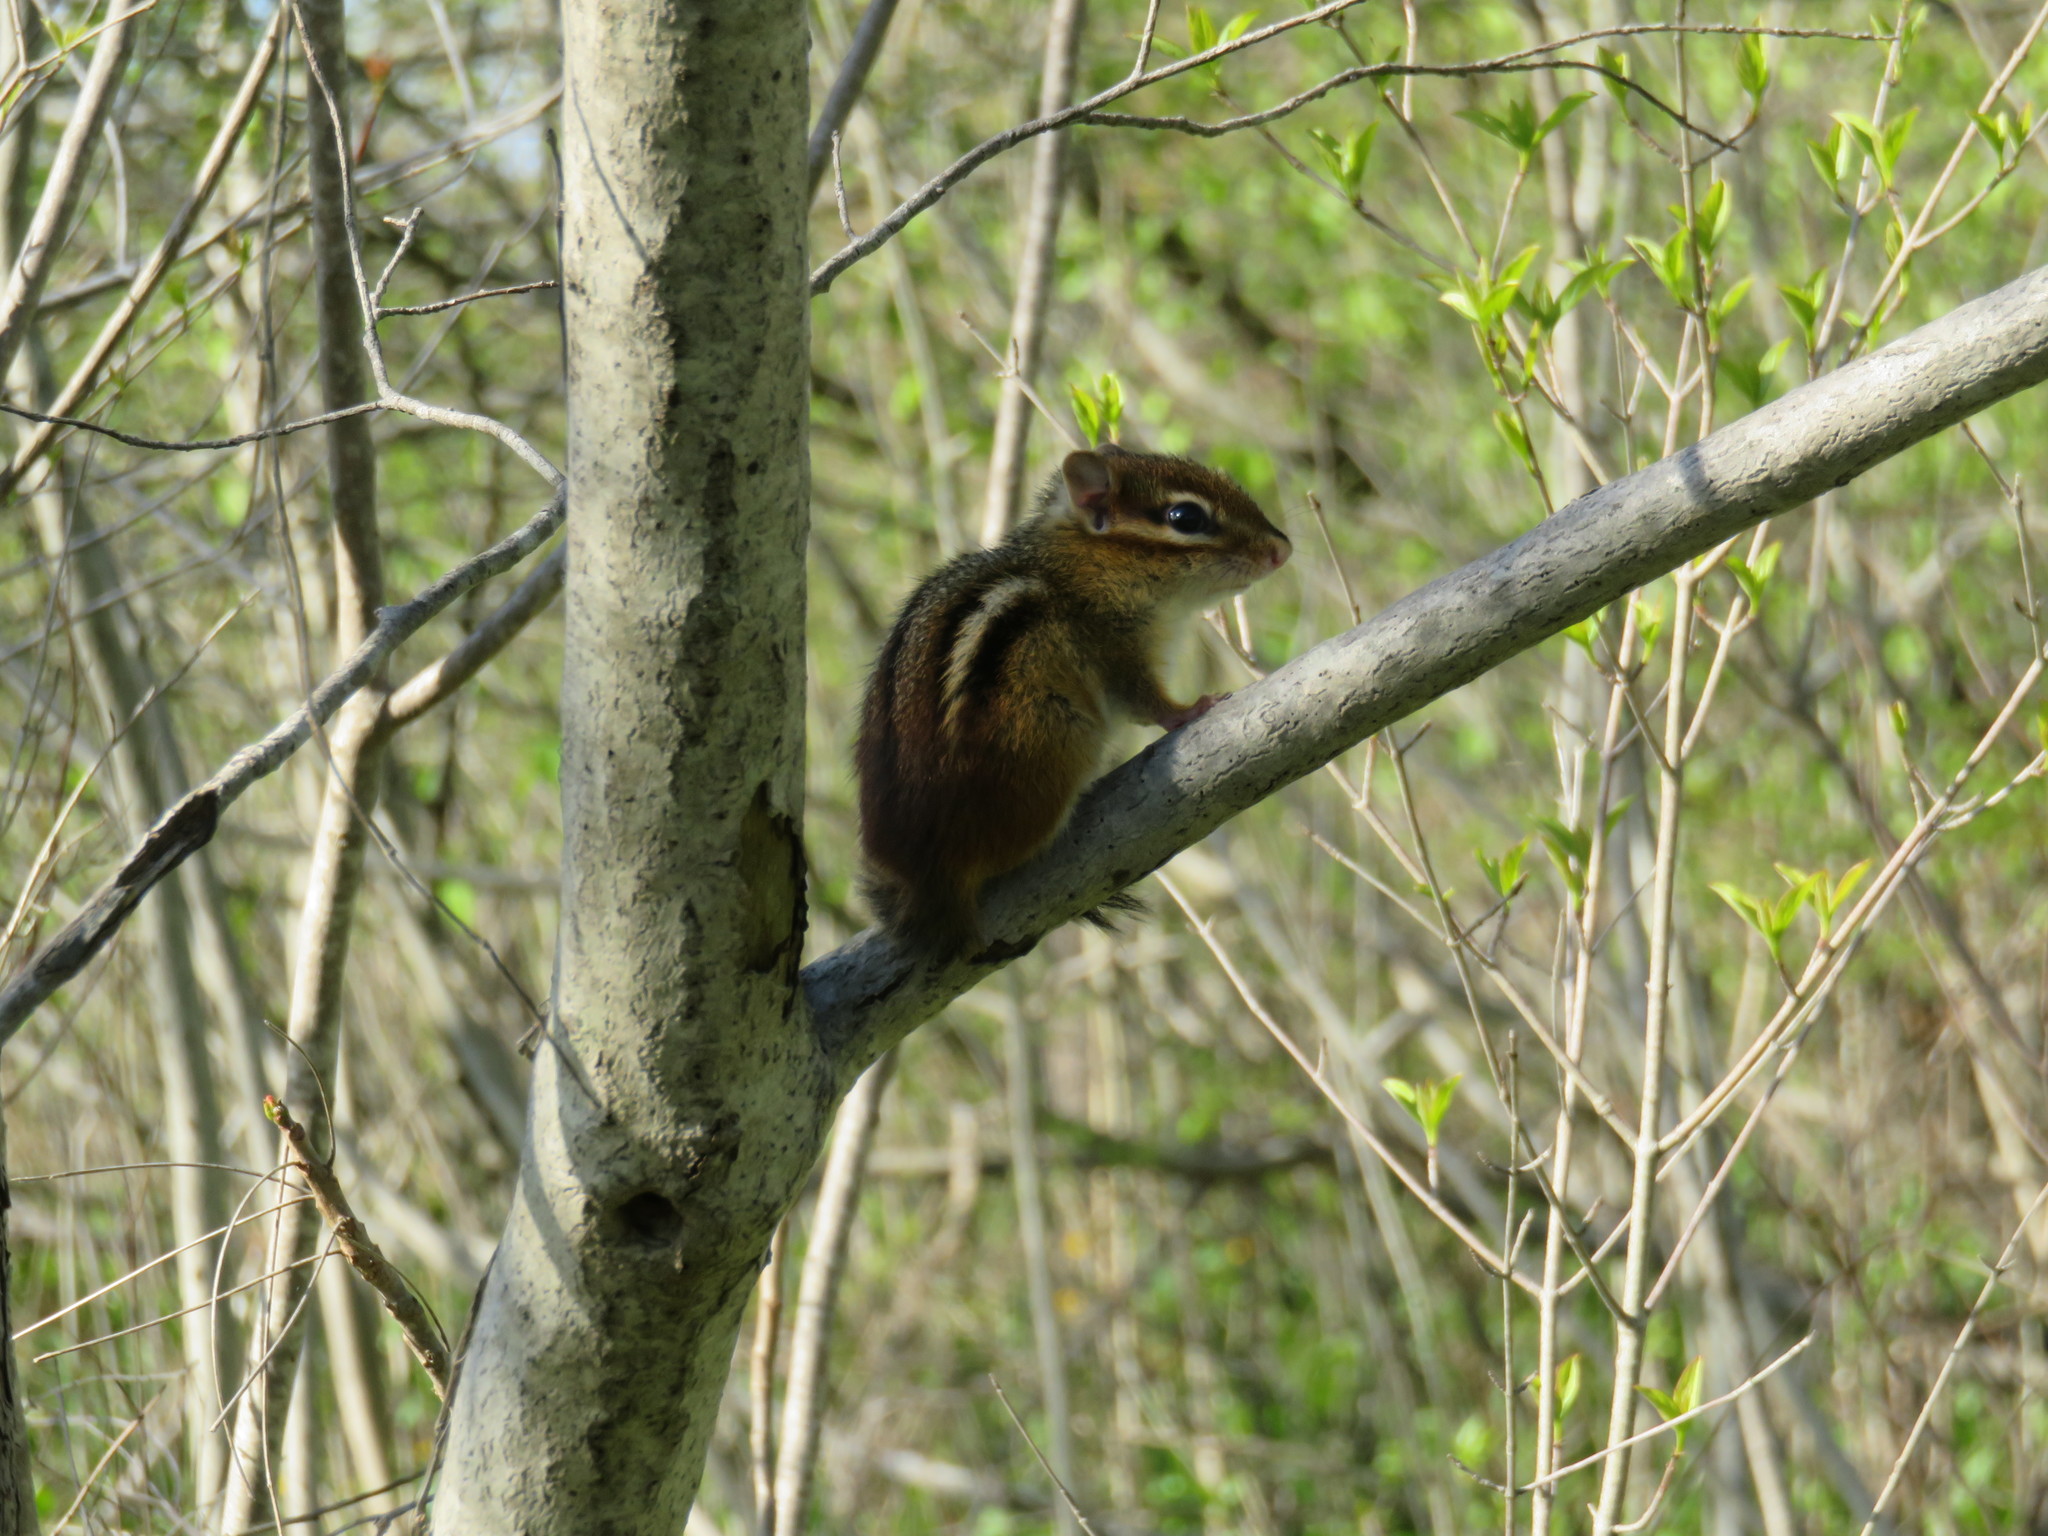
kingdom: Animalia
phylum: Chordata
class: Mammalia
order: Rodentia
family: Sciuridae
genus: Tamias
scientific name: Tamias striatus
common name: Eastern chipmunk
